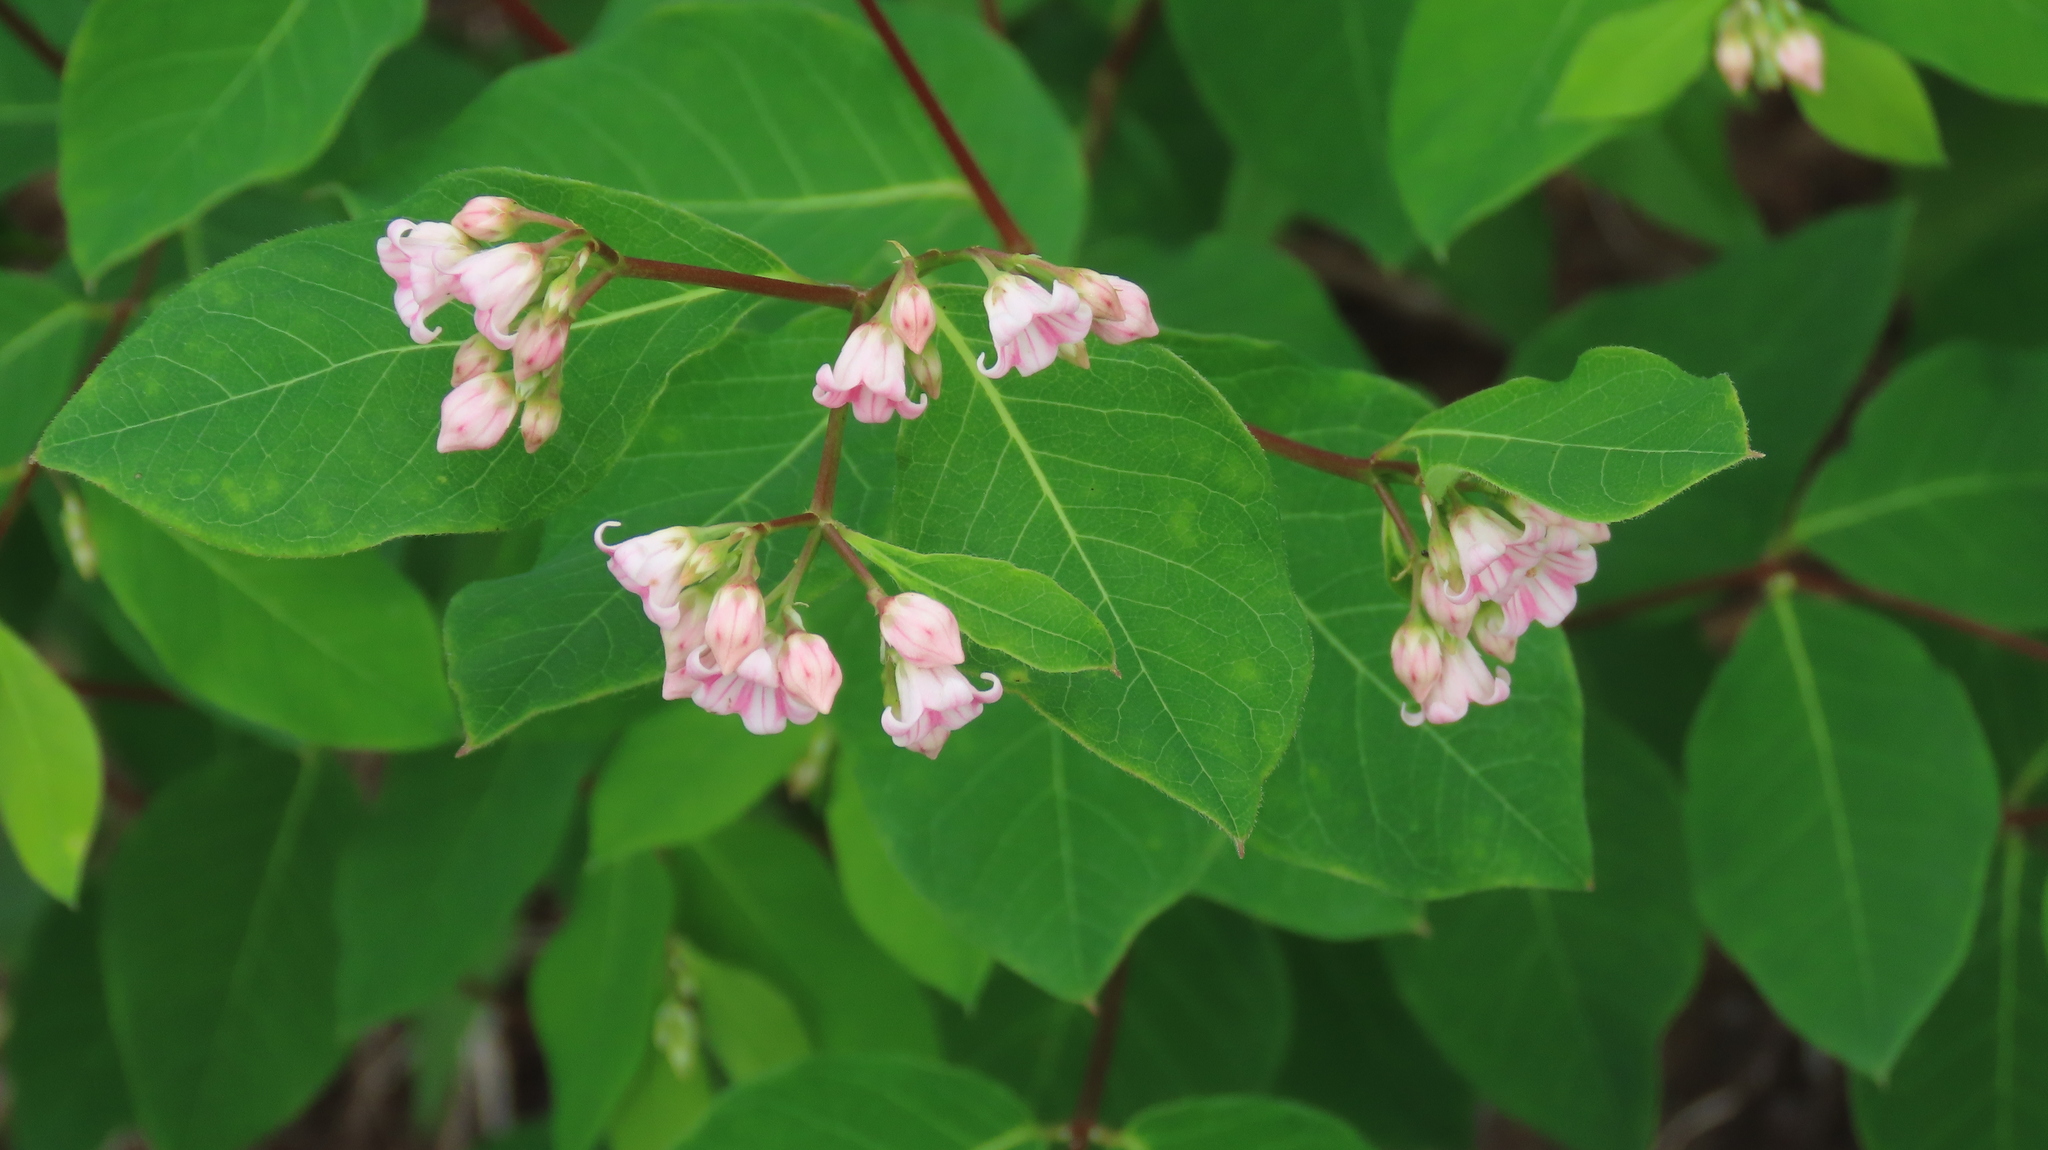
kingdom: Plantae
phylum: Tracheophyta
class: Magnoliopsida
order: Gentianales
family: Apocynaceae
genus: Apocynum
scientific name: Apocynum androsaemifolium
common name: Spreading dogbane
